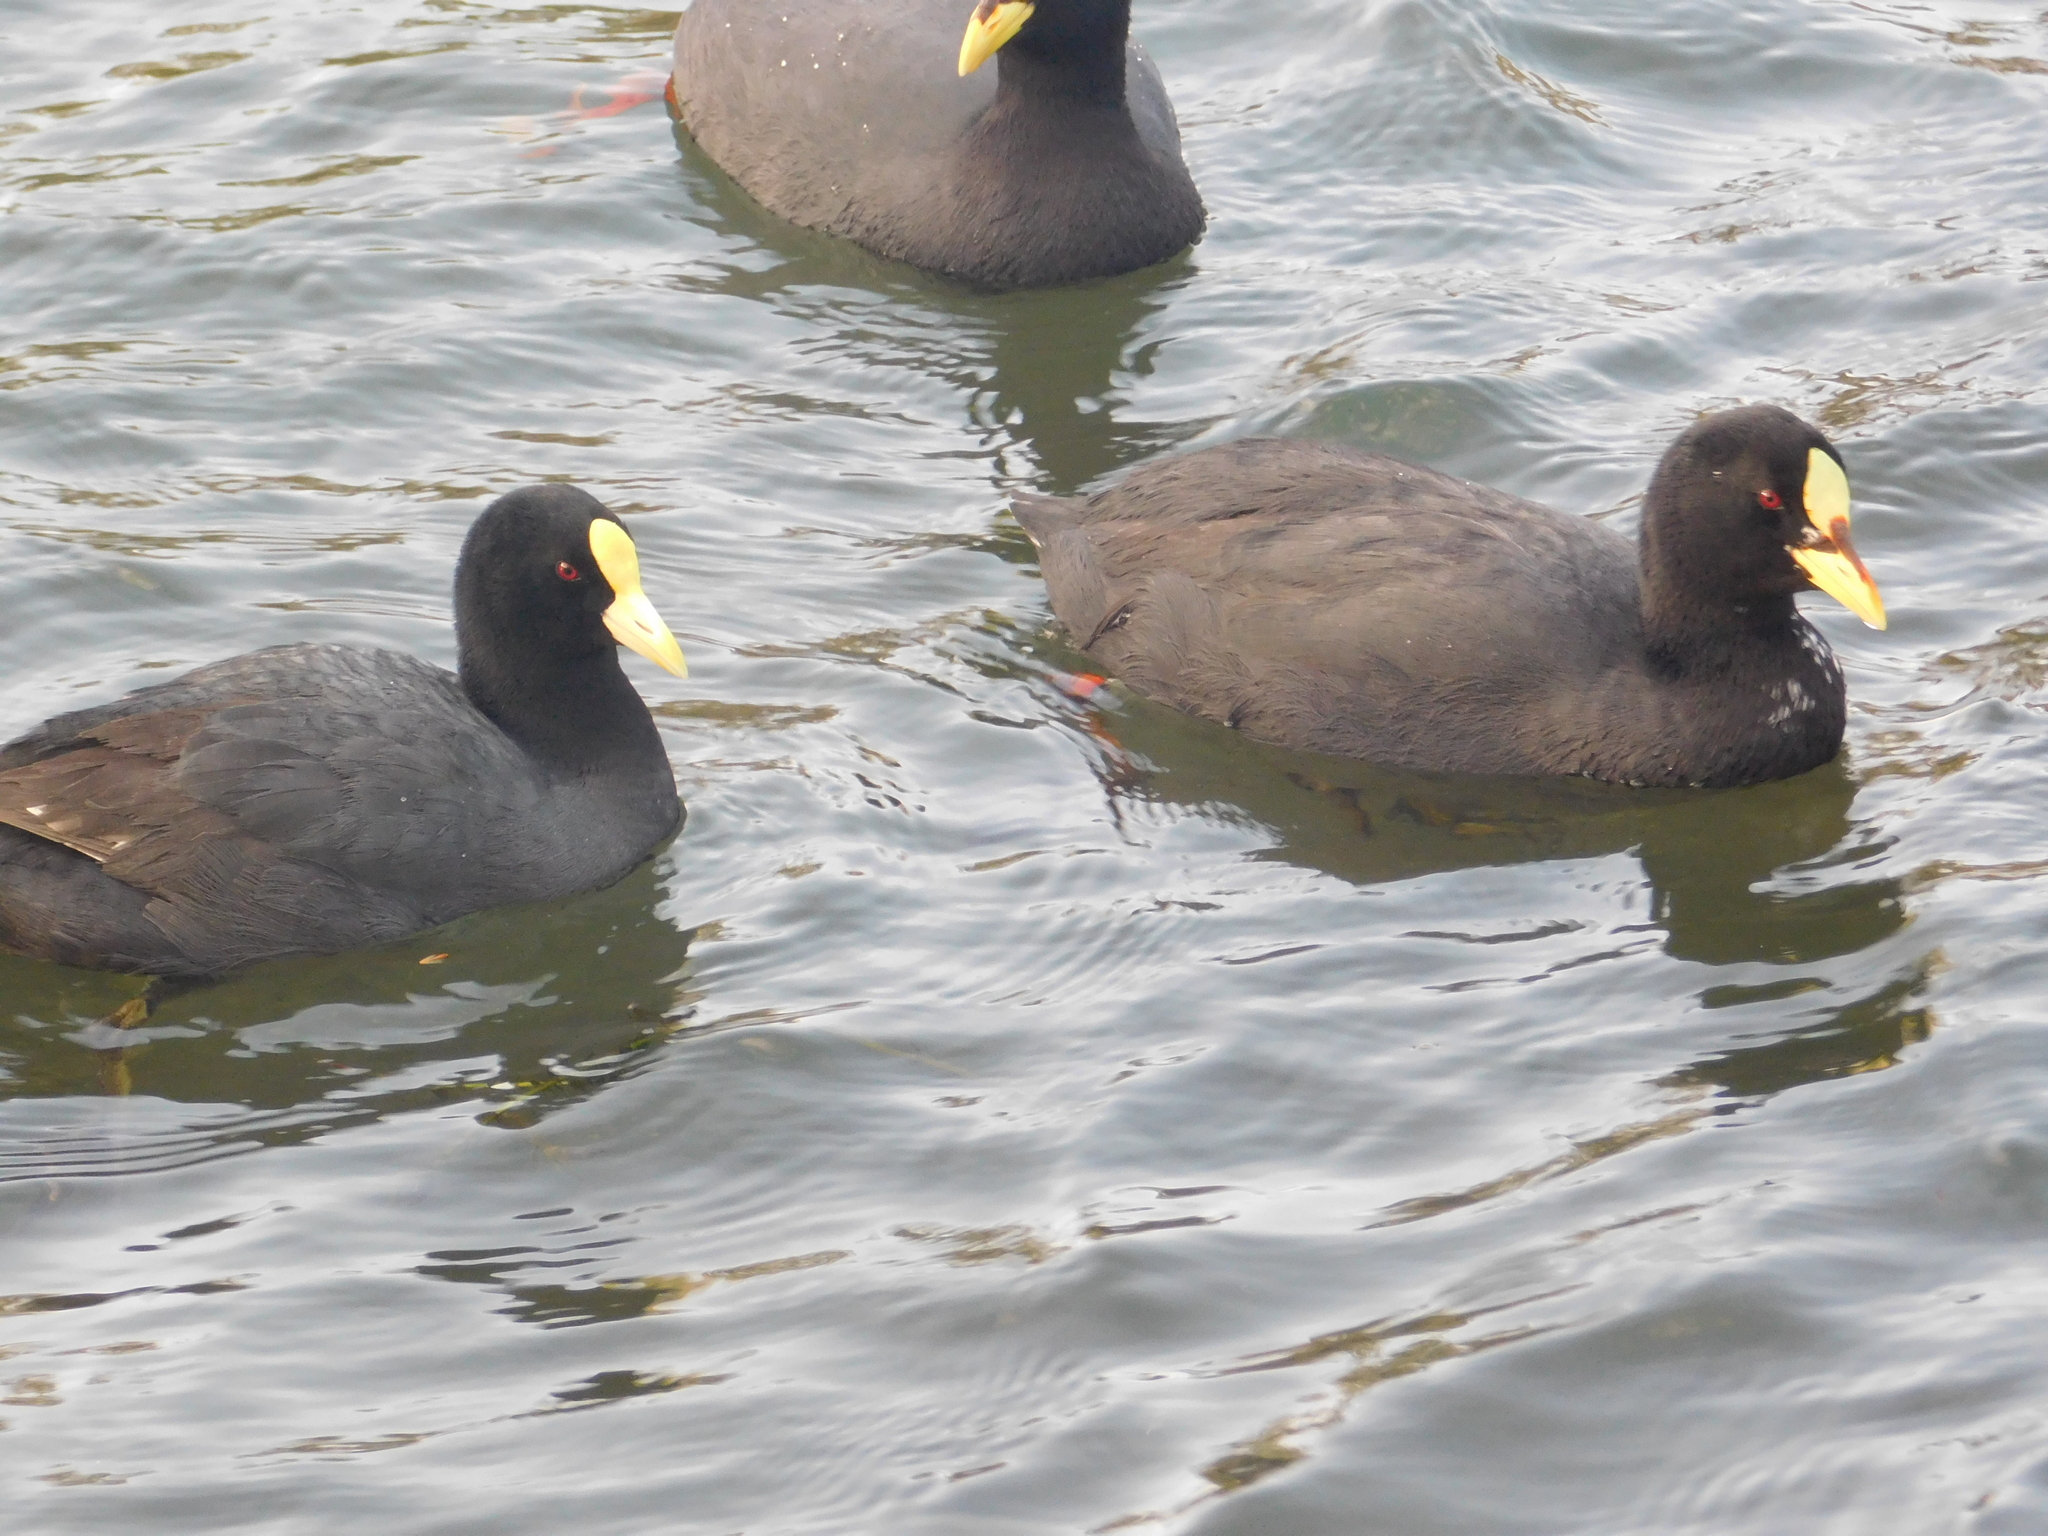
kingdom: Animalia
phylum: Chordata
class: Aves
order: Gruiformes
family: Rallidae
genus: Fulica
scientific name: Fulica leucoptera
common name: White-winged coot
